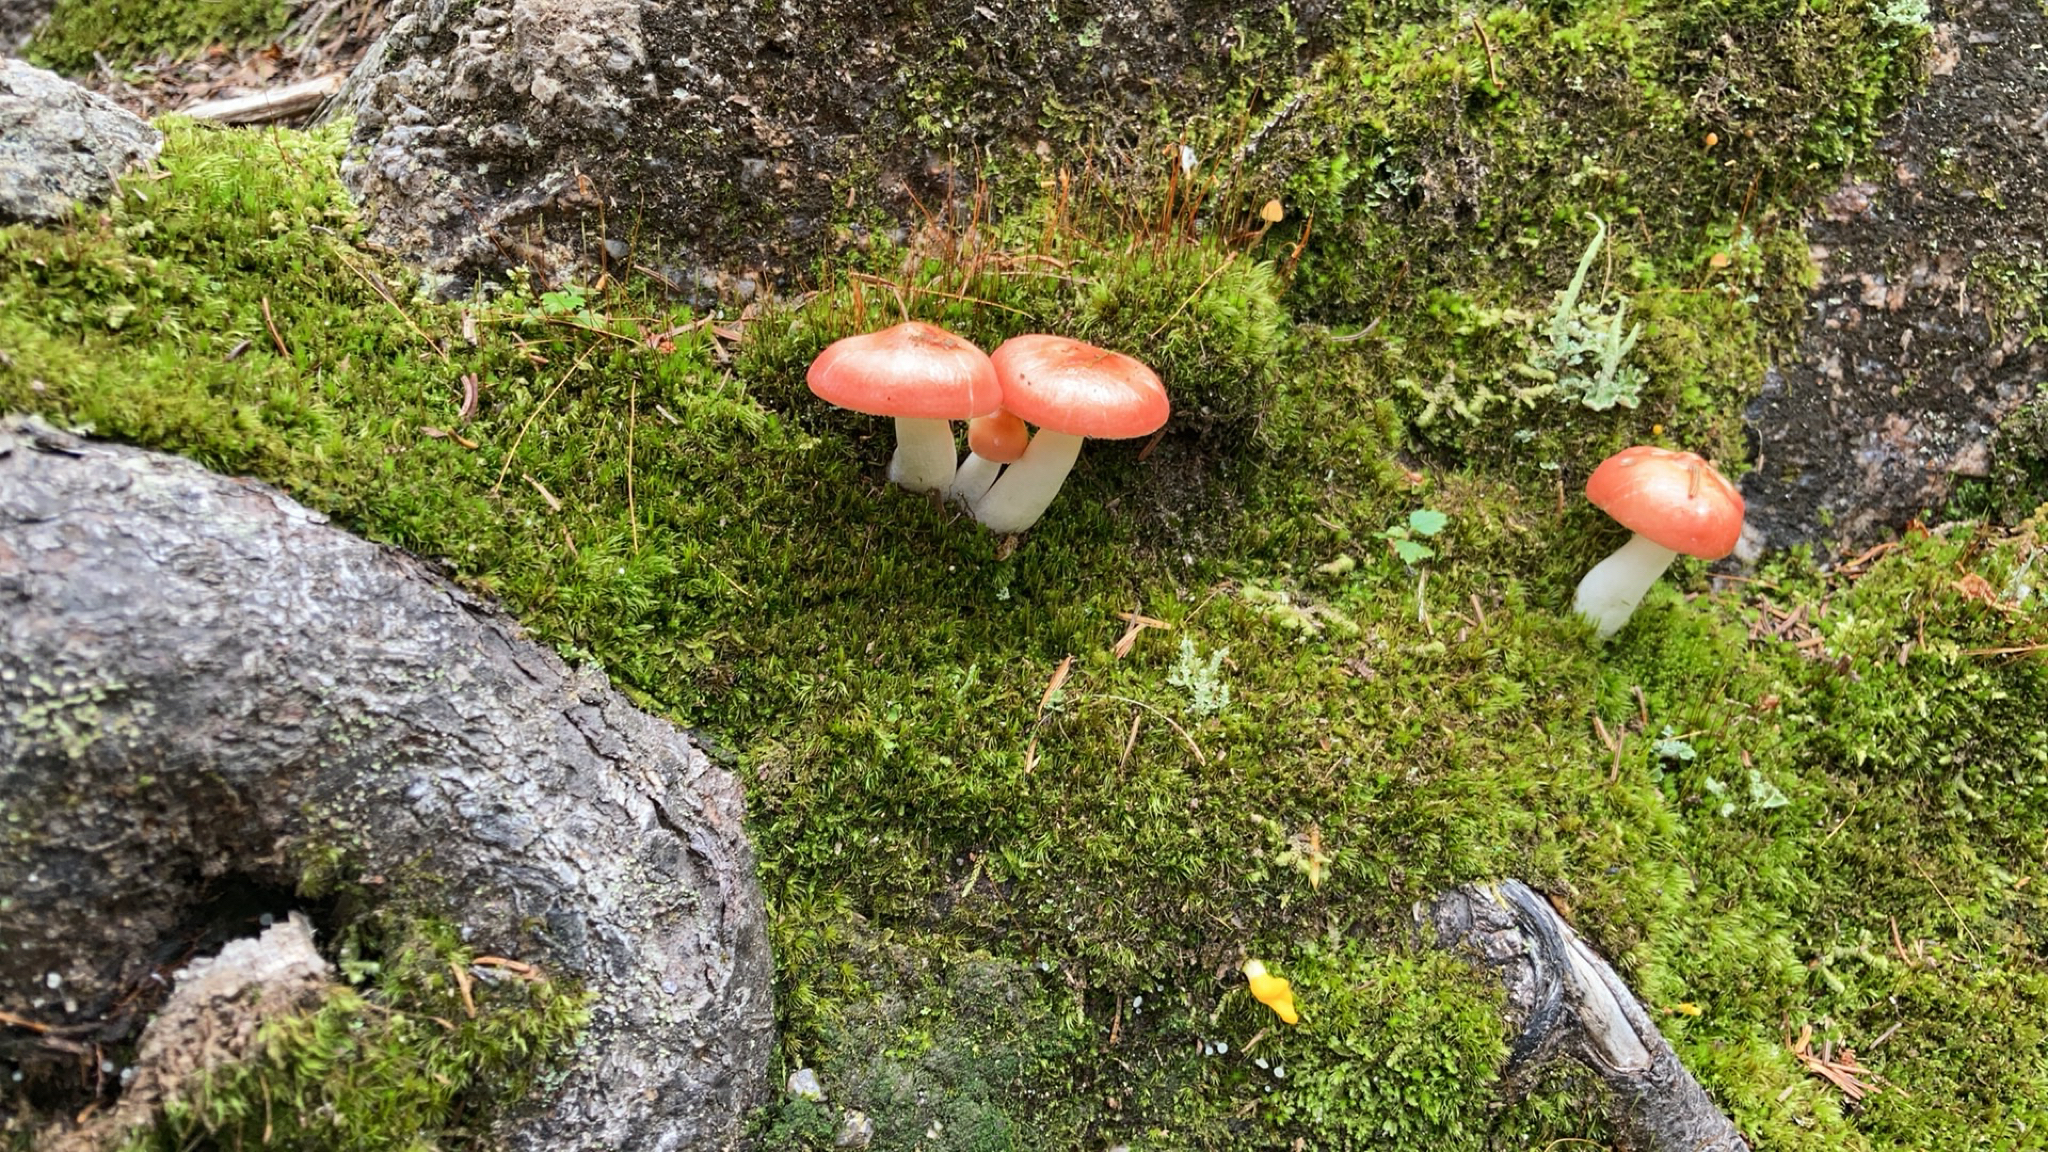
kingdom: Fungi
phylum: Basidiomycota
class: Agaricomycetes
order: Russulales
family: Russulaceae
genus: Russula
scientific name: Russula
